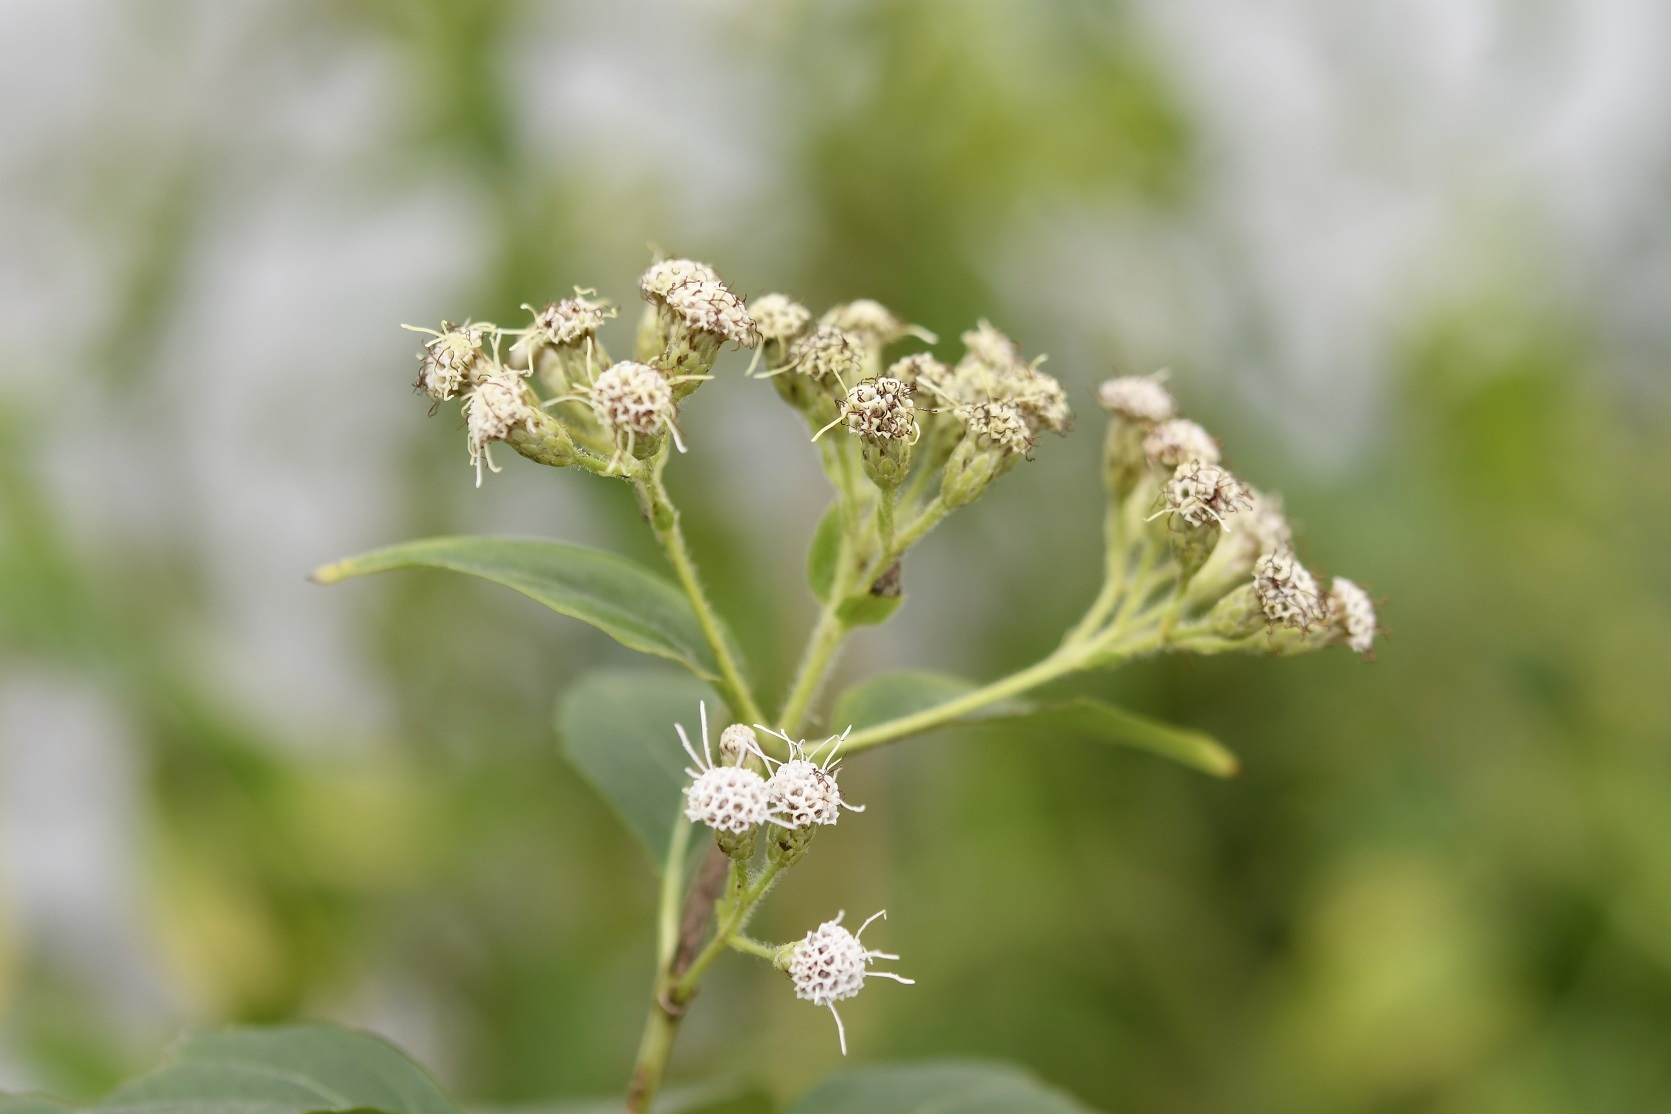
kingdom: Plantae
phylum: Tracheophyta
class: Magnoliopsida
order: Asterales
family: Asteraceae
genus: Chromolaena
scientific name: Chromolaena glaberrima
